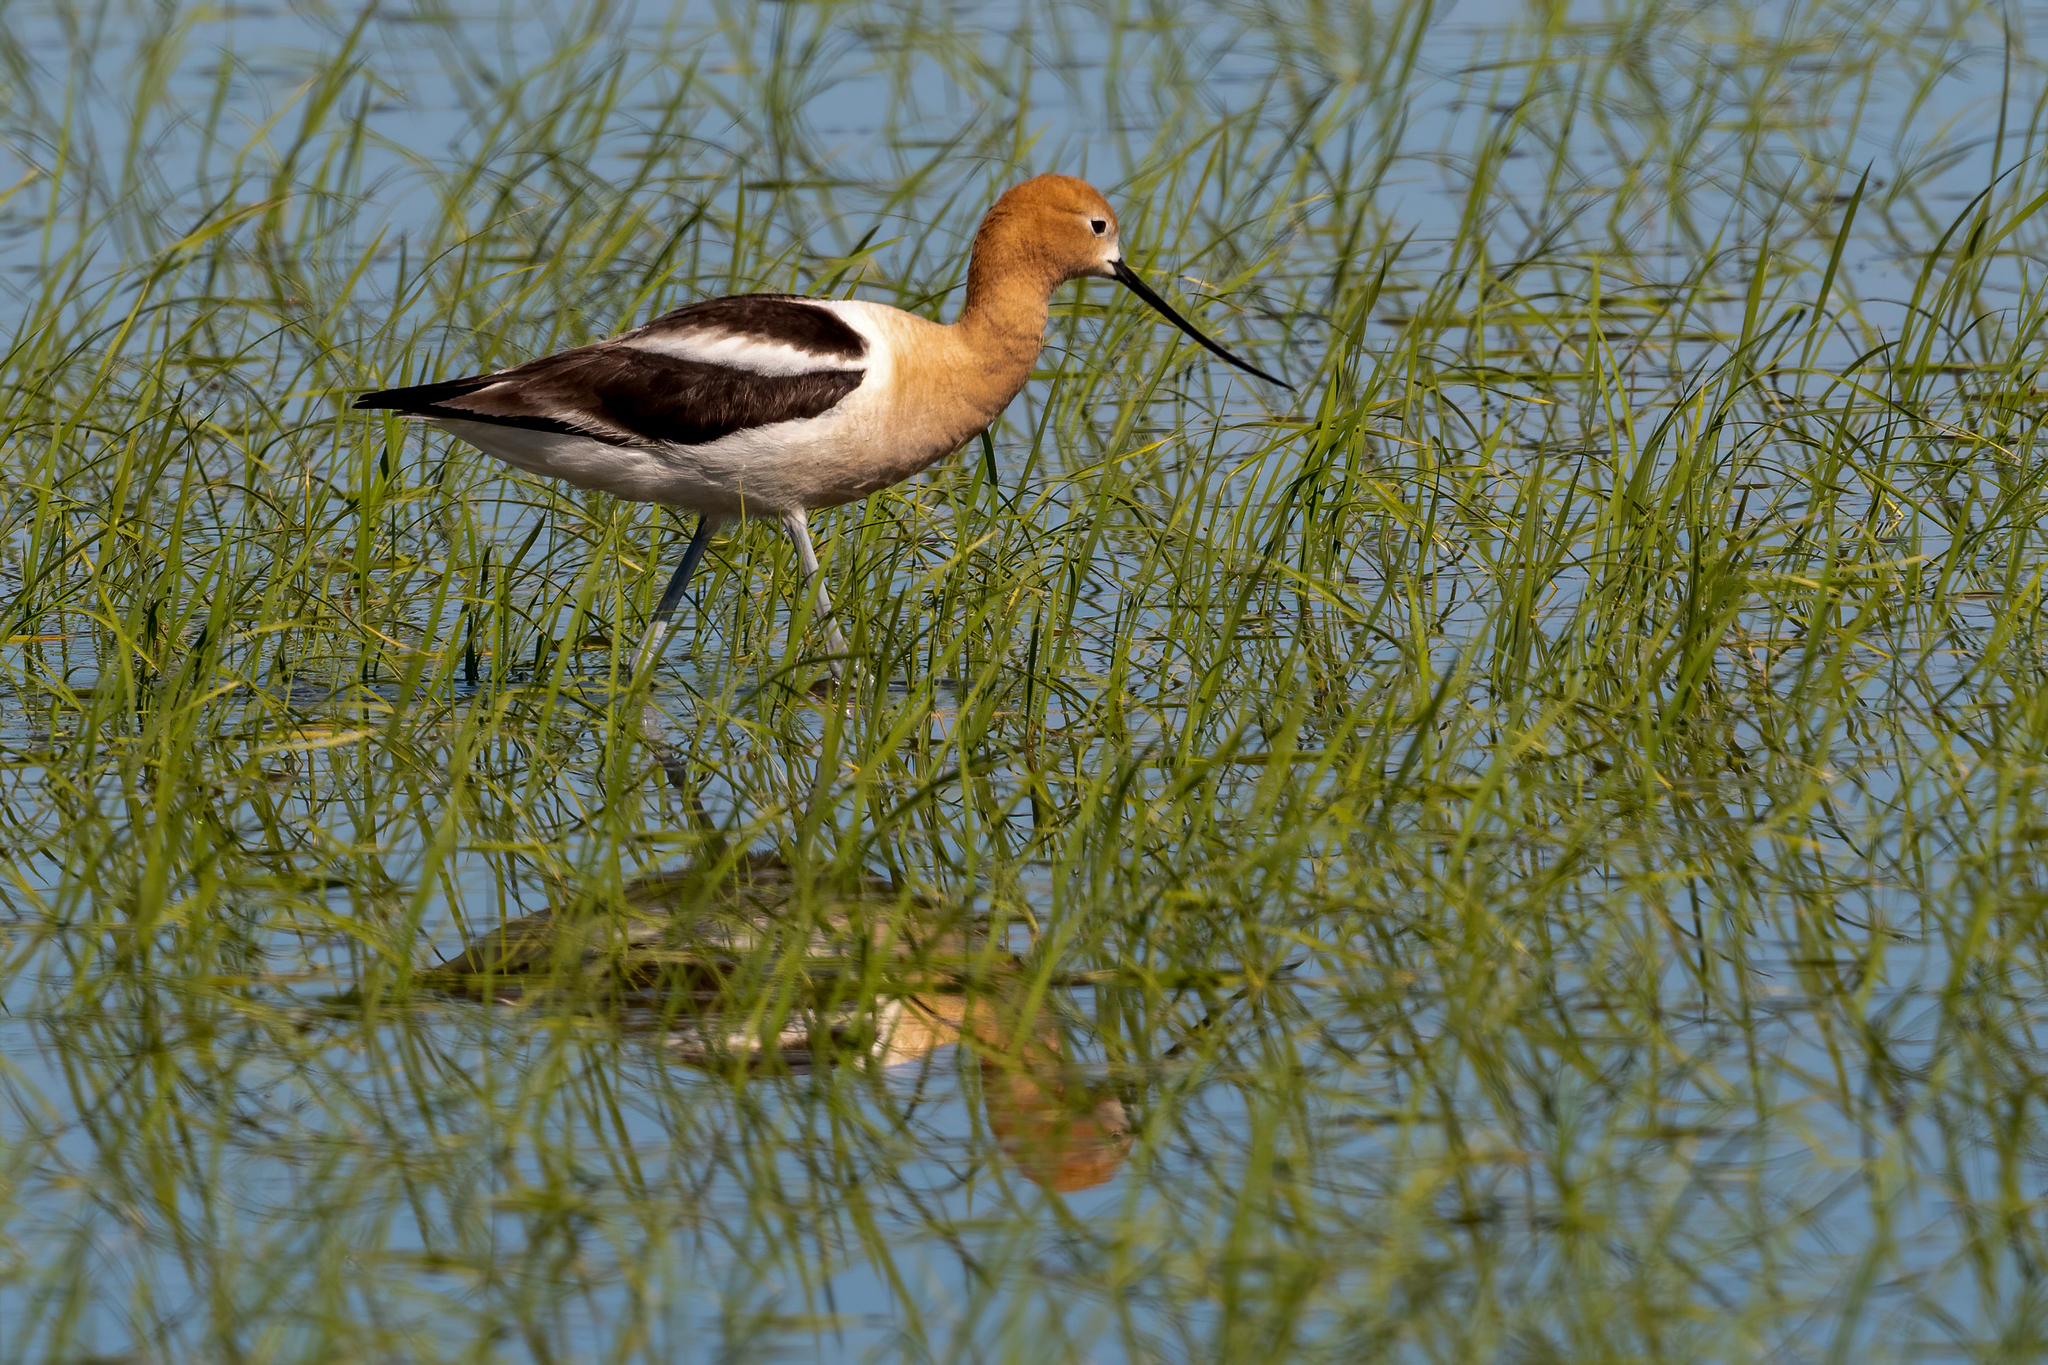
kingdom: Animalia
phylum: Chordata
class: Aves
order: Charadriiformes
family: Recurvirostridae
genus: Recurvirostra
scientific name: Recurvirostra americana
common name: American avocet
